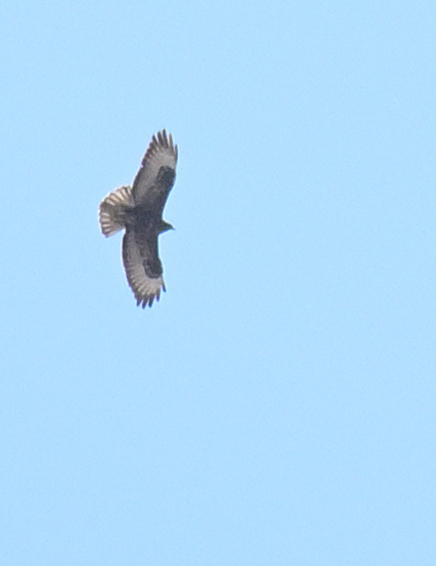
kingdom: Animalia
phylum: Chordata
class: Aves
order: Accipitriformes
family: Accipitridae
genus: Buteo
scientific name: Buteo buteo
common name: Common buzzard
